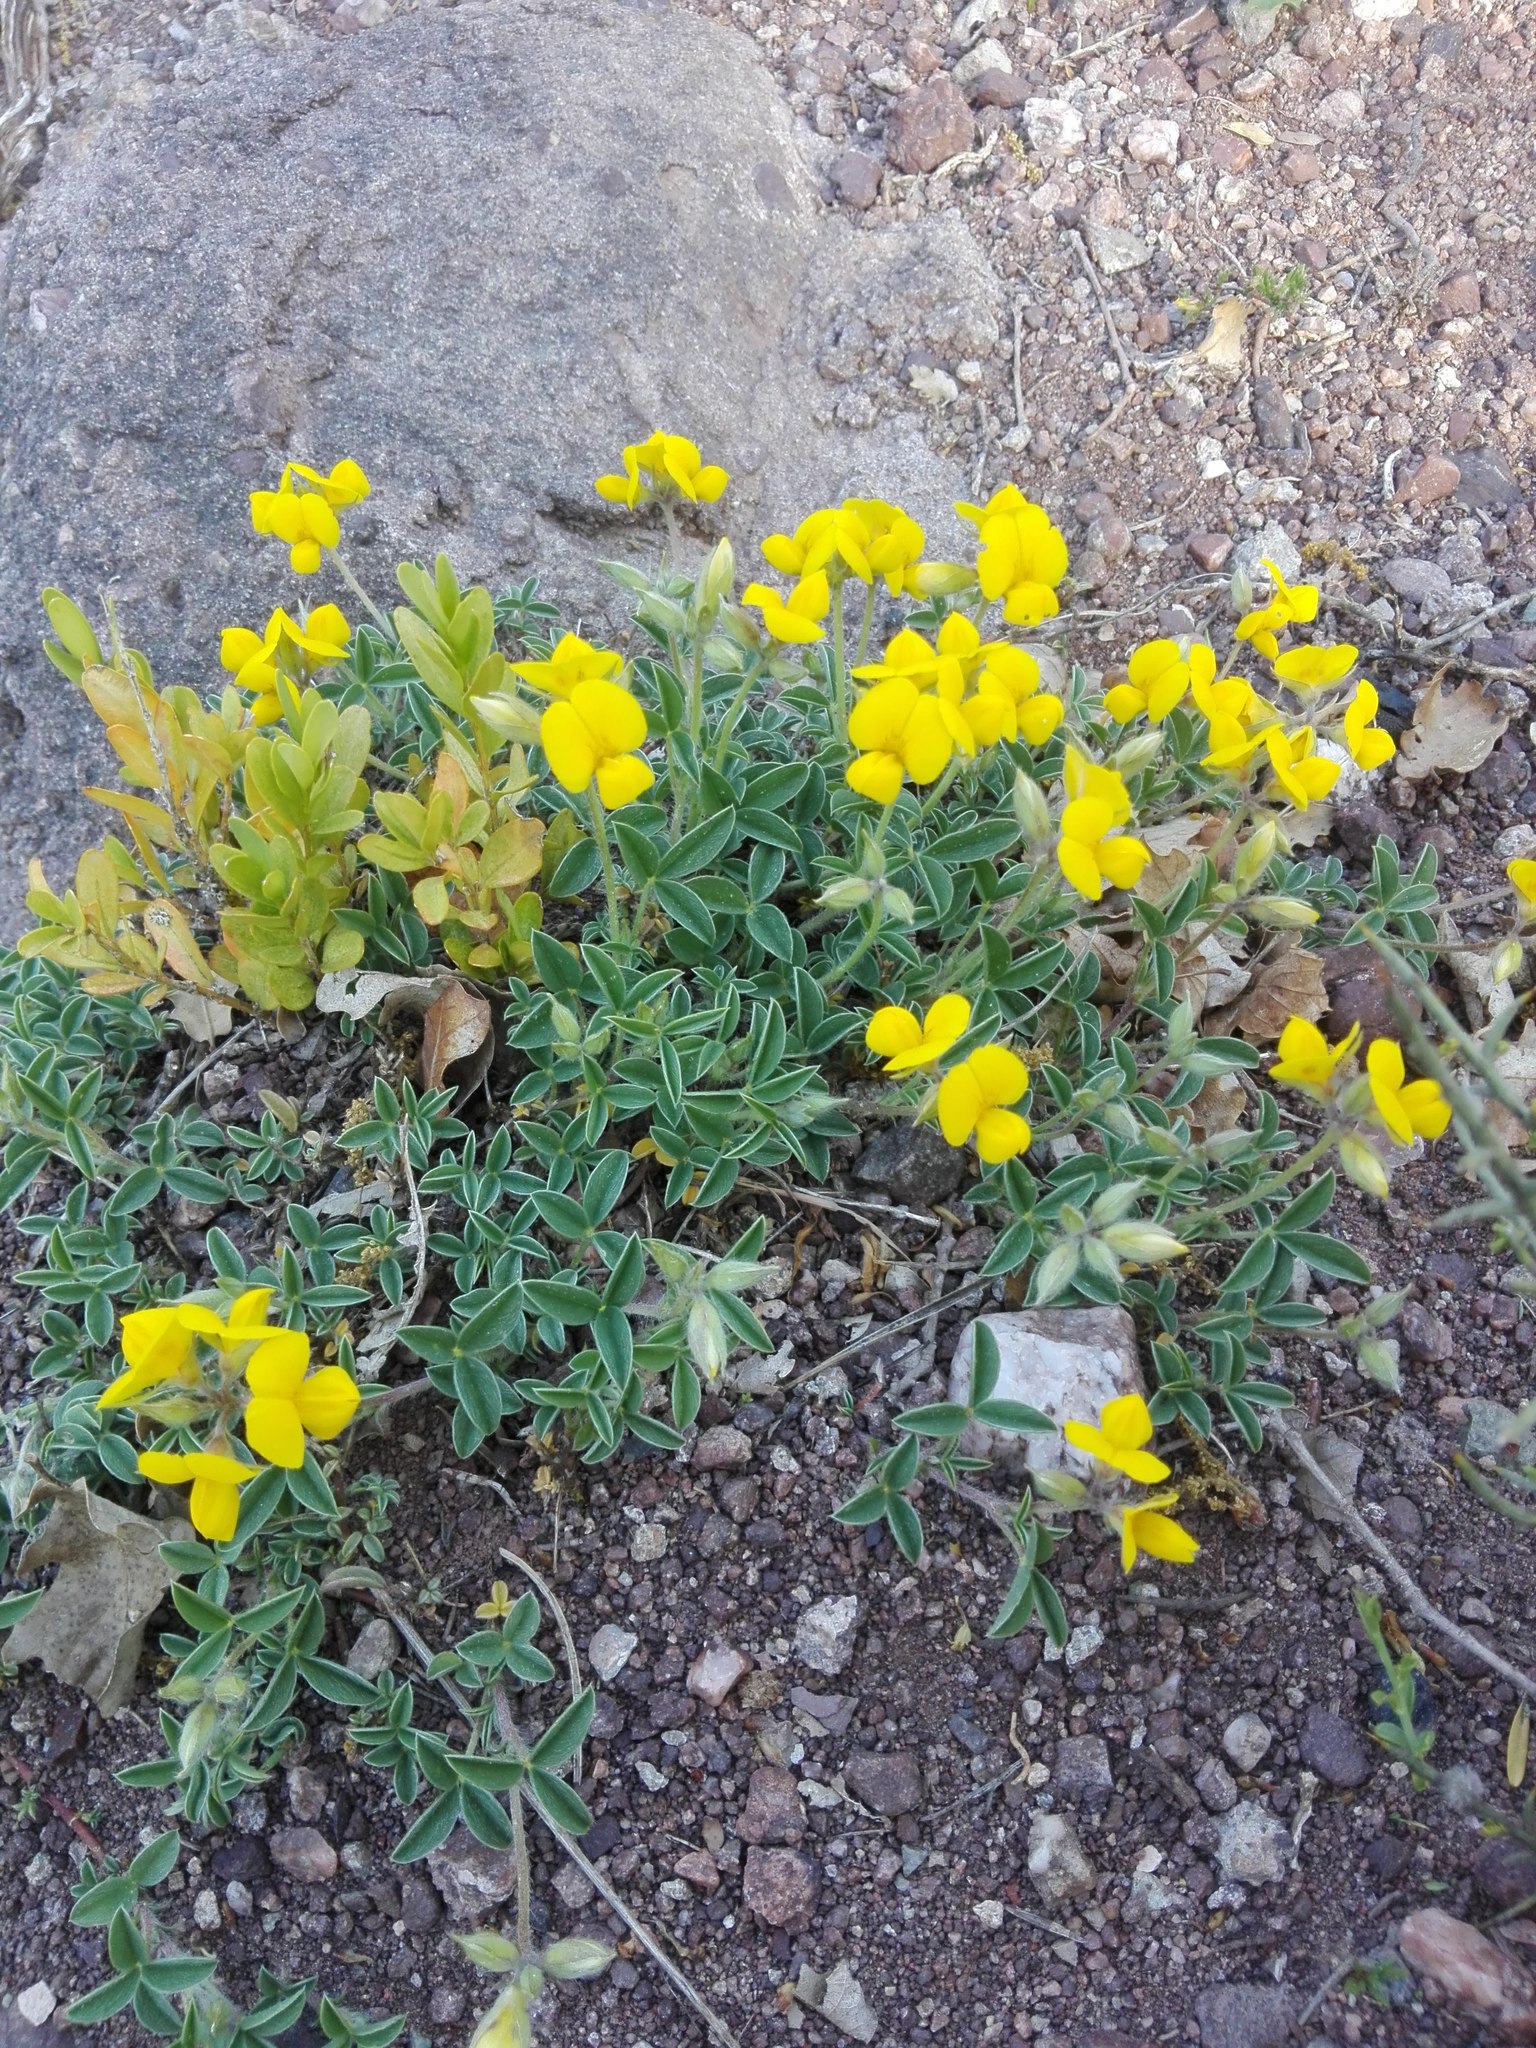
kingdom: Plantae
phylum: Tracheophyta
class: Magnoliopsida
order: Fabales
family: Fabaceae
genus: Argyrolobium
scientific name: Argyrolobium zanonii
